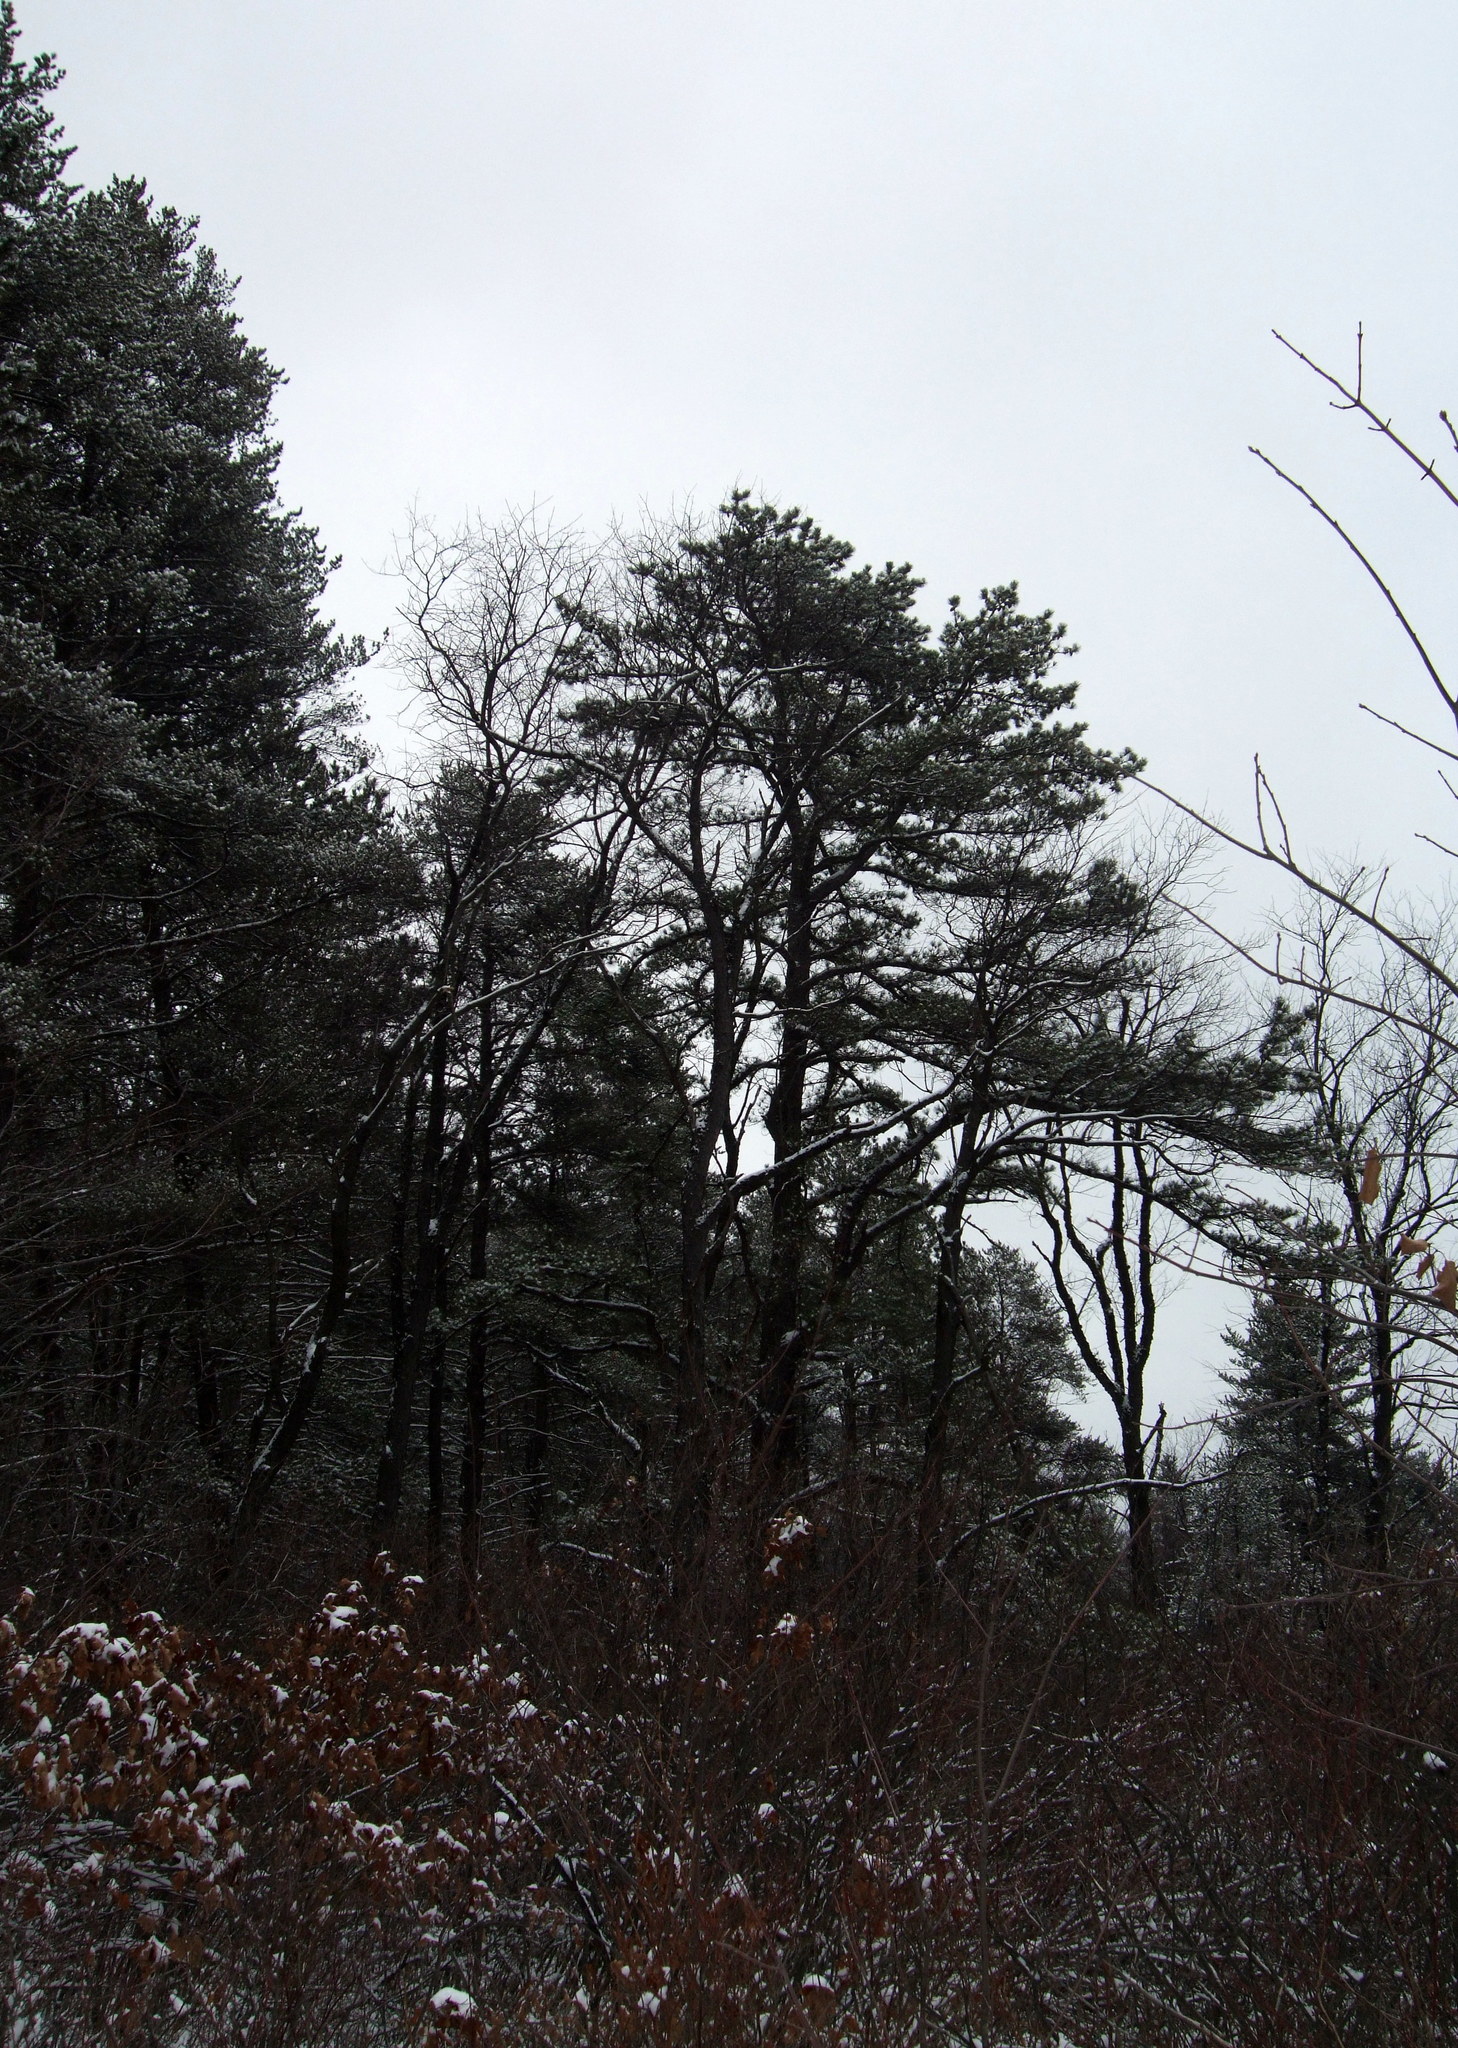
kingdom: Plantae
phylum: Tracheophyta
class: Pinopsida
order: Pinales
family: Pinaceae
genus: Pinus
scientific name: Pinus strobus
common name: Weymouth pine
